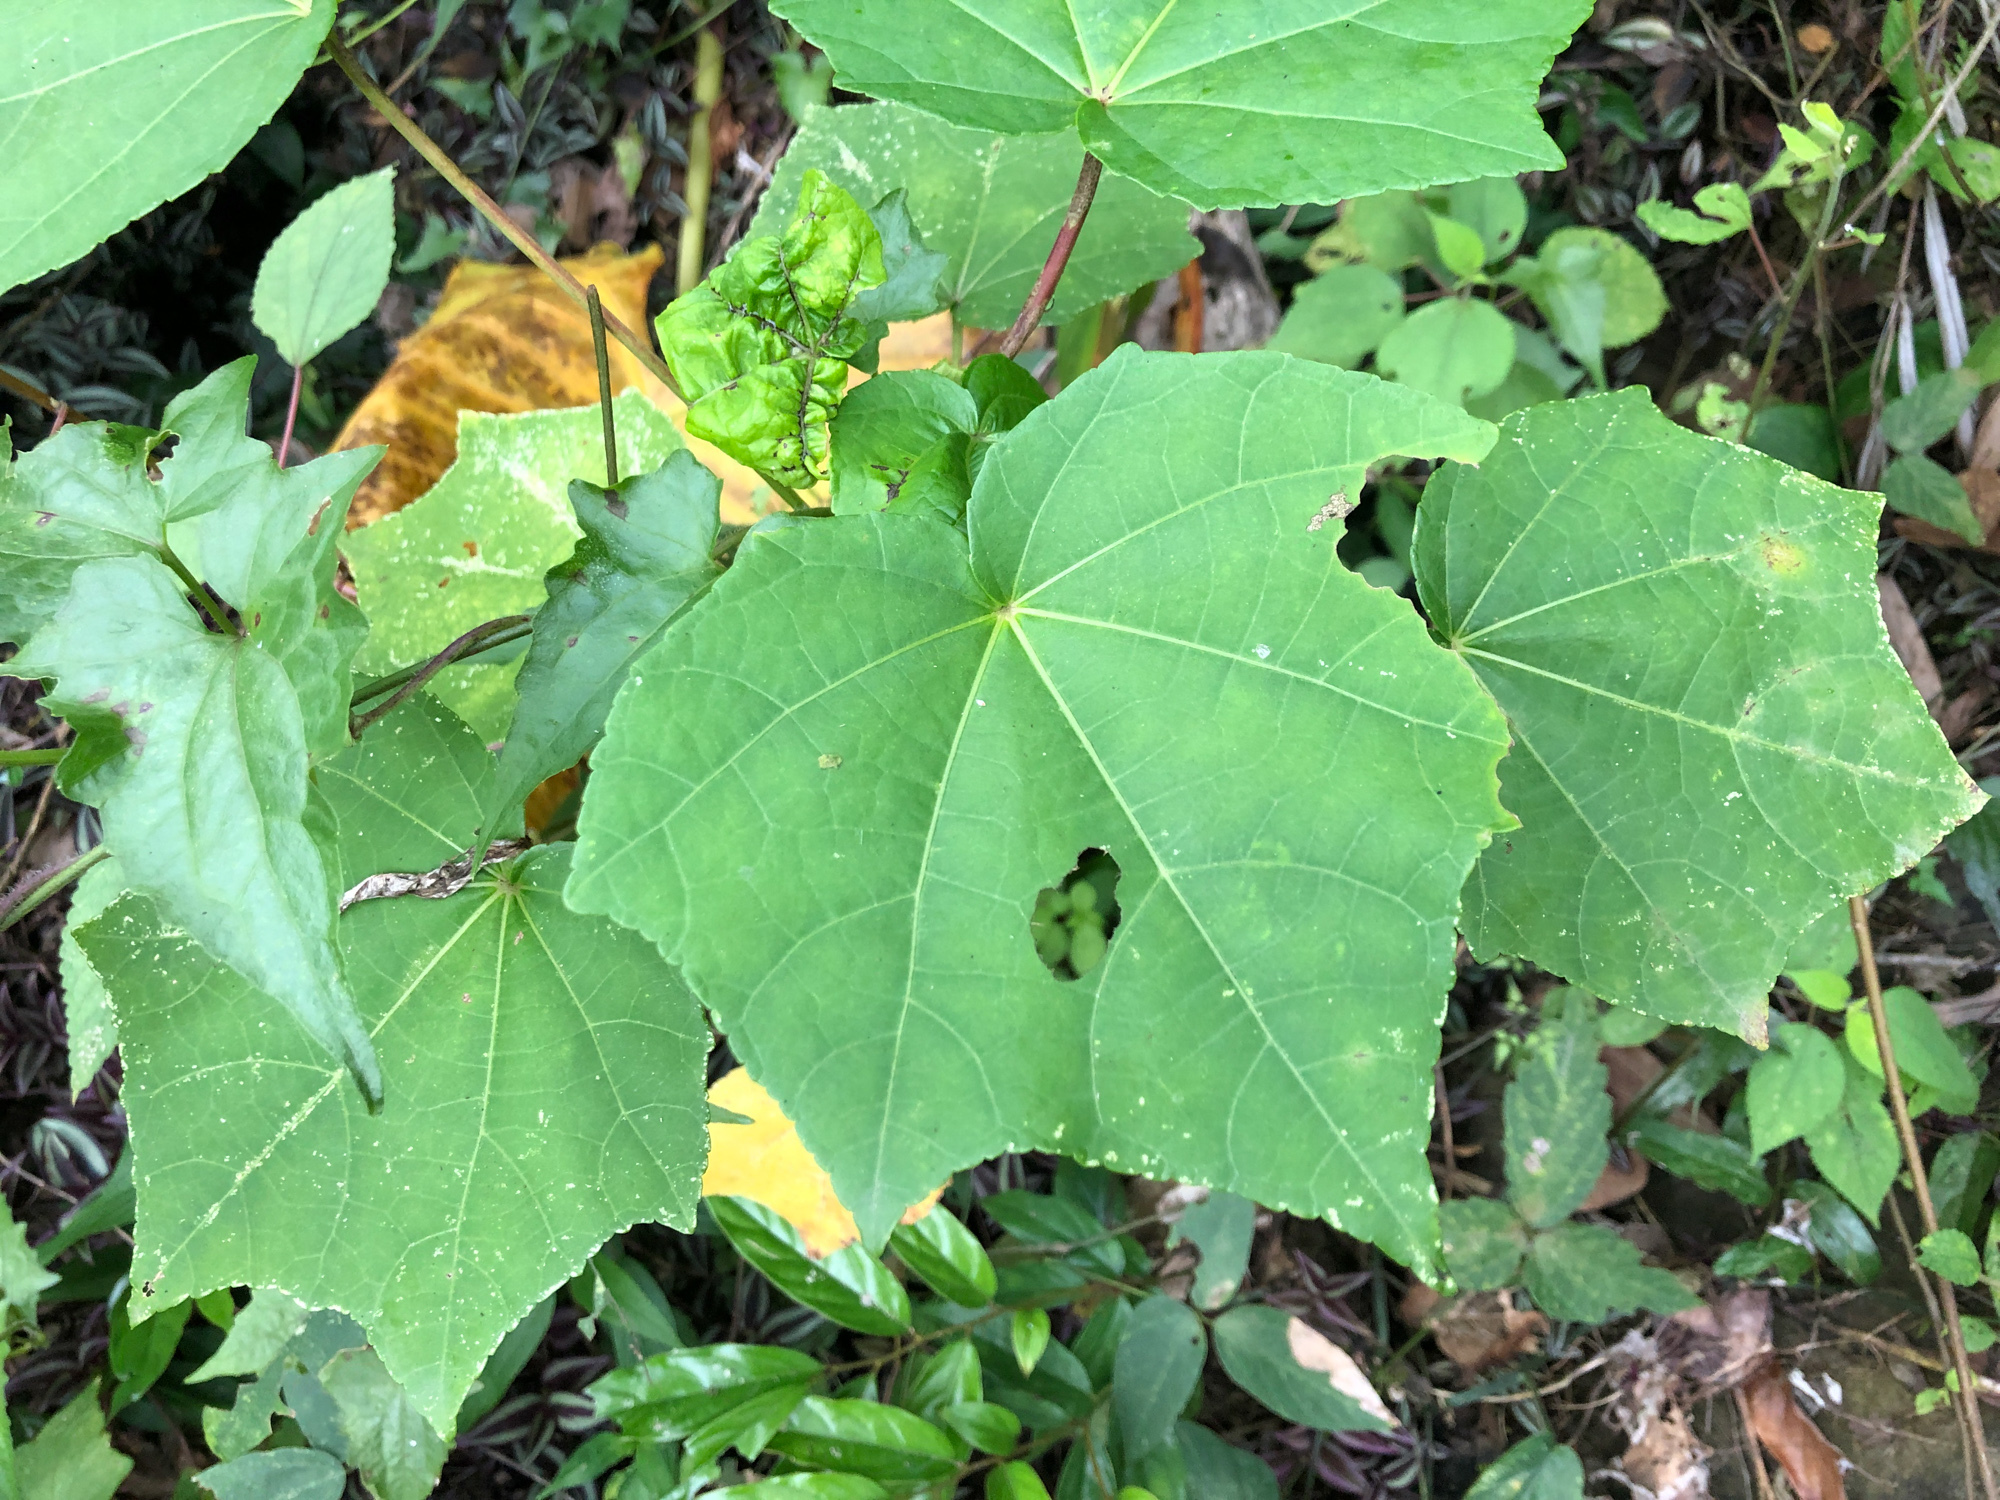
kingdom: Plantae
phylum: Tracheophyta
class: Magnoliopsida
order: Malvales
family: Malvaceae
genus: Hibiscus
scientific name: Hibiscus taiwanensis
